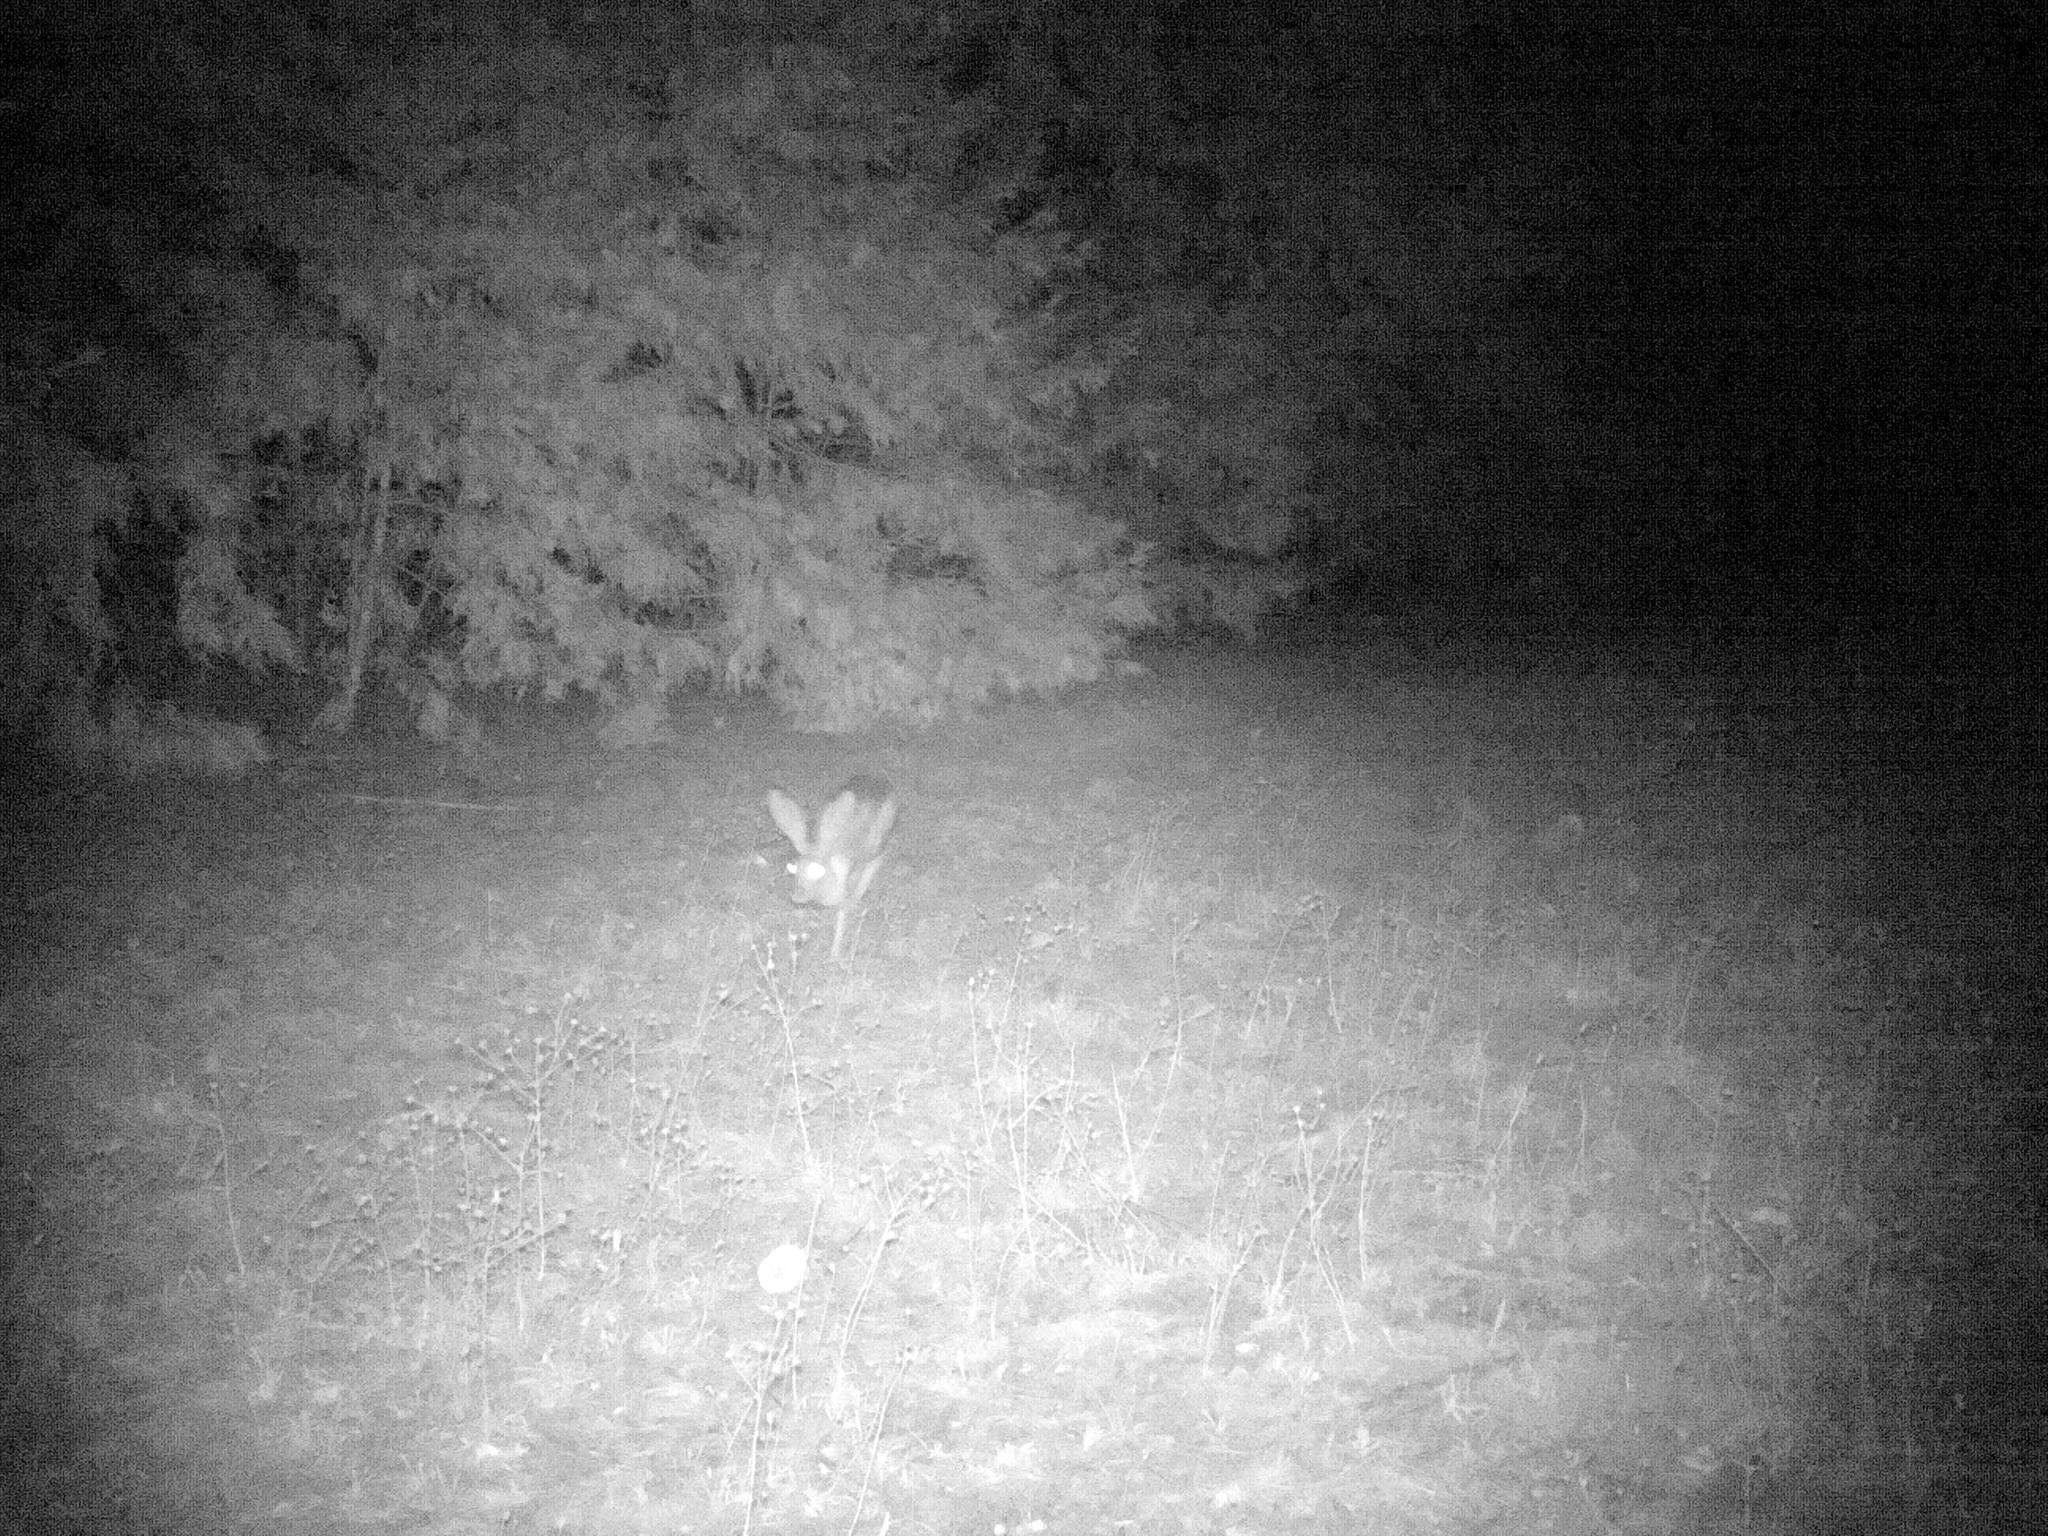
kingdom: Animalia
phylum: Chordata
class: Mammalia
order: Lagomorpha
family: Leporidae
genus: Lepus
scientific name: Lepus californicus
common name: Black-tailed jackrabbit
